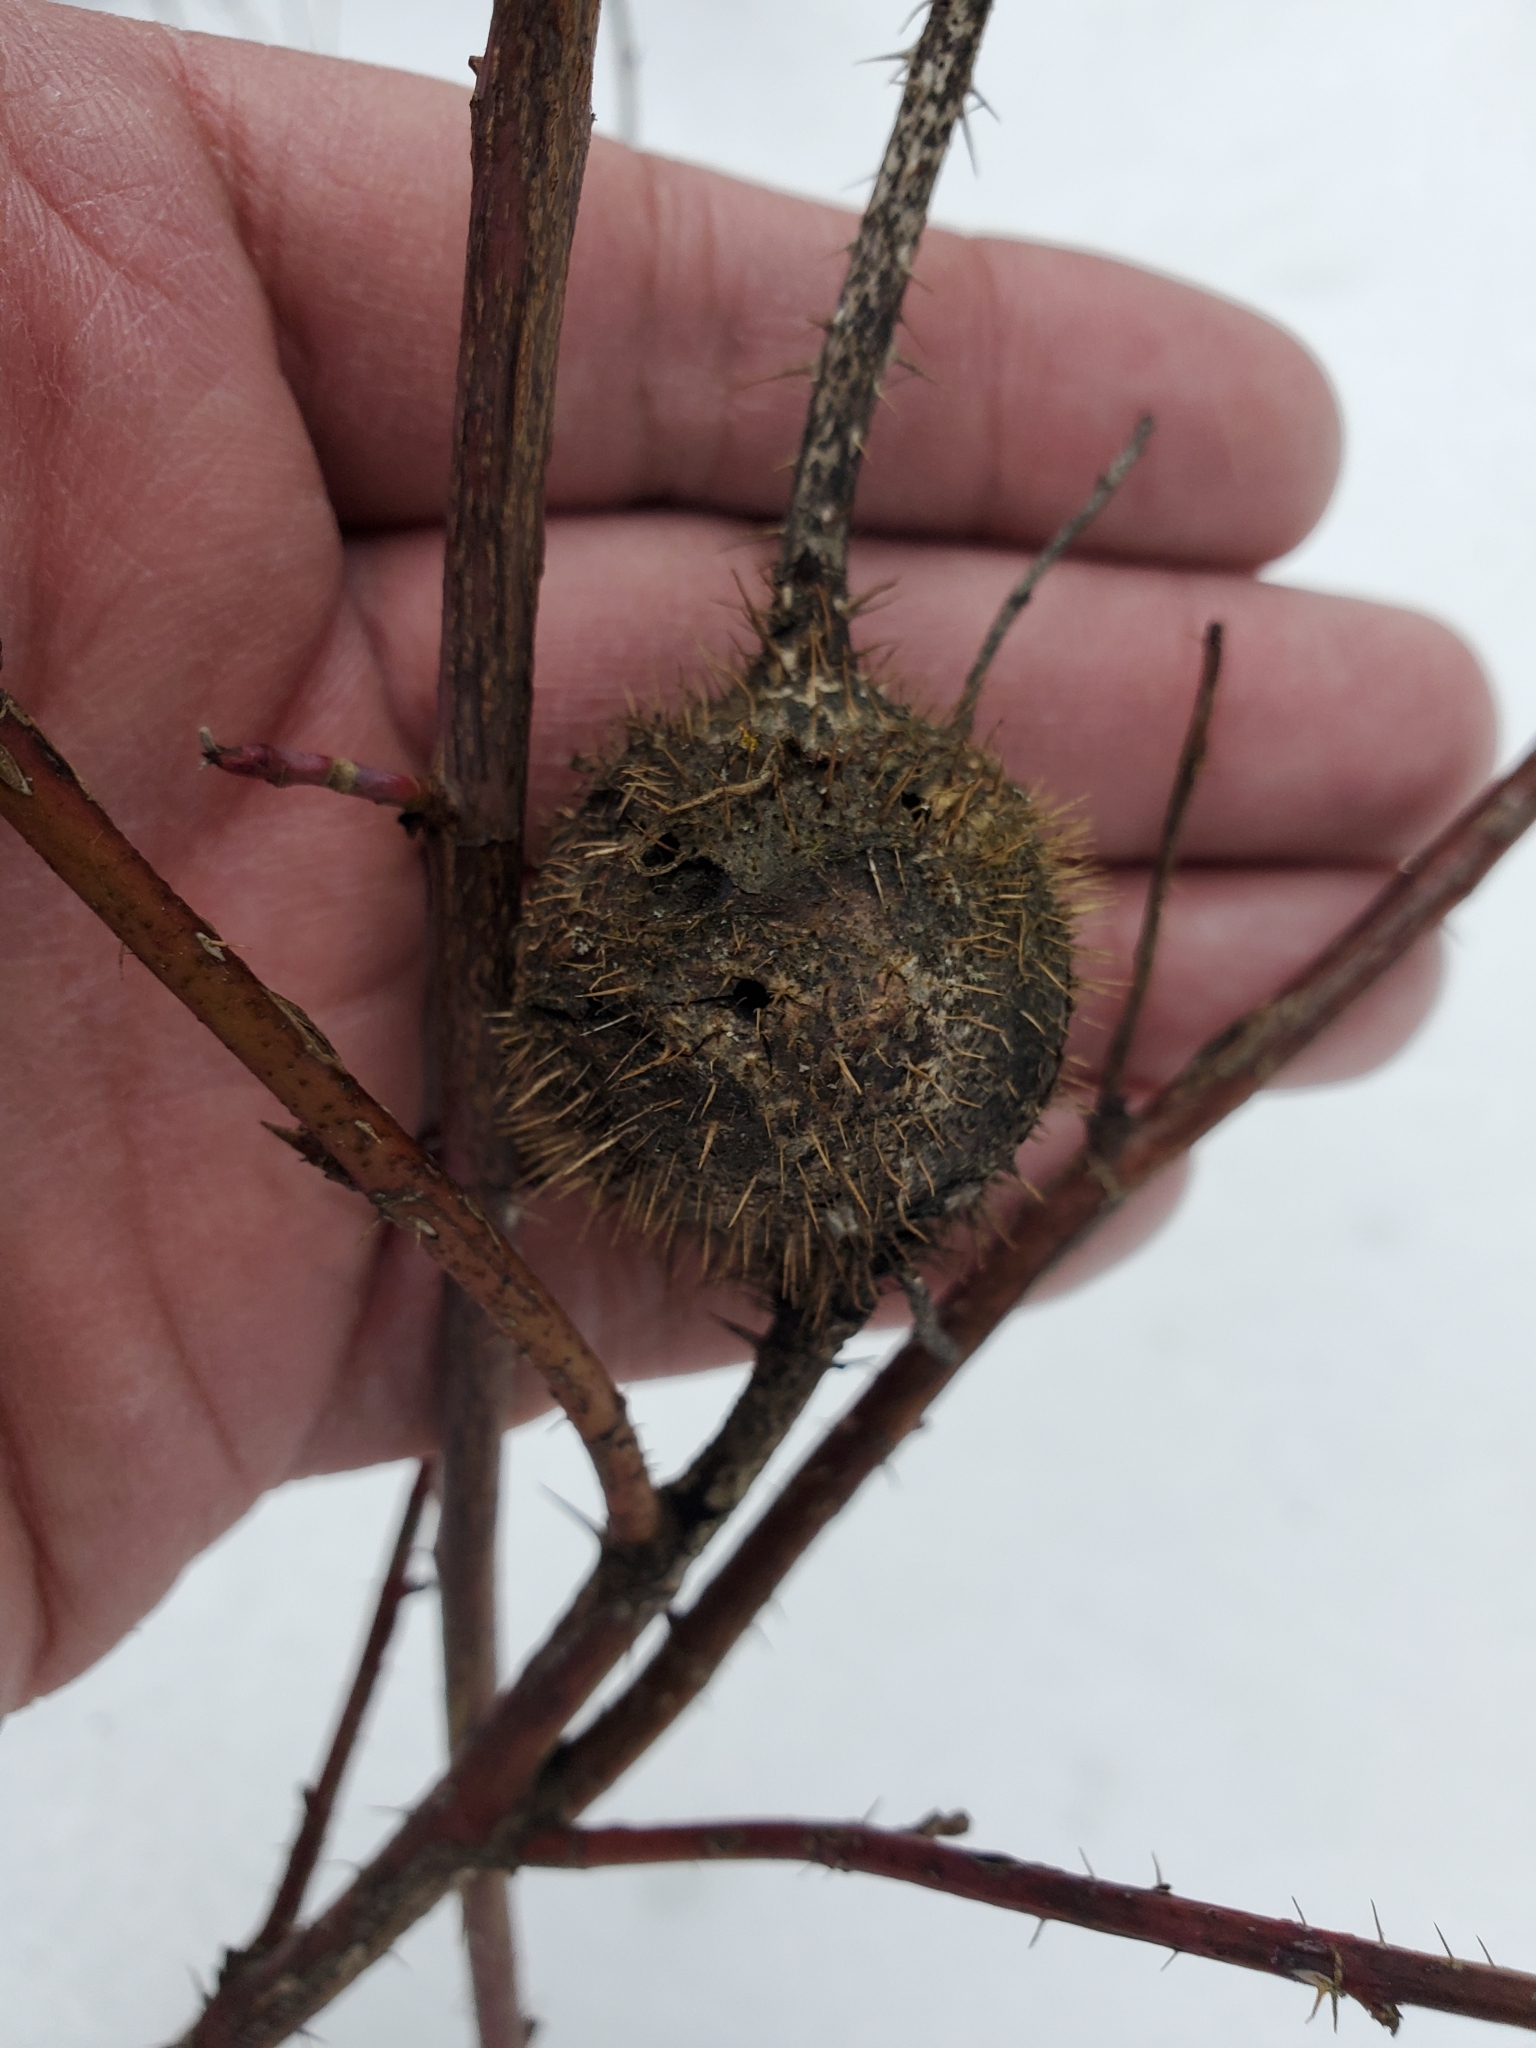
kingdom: Animalia
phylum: Arthropoda
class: Insecta
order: Hymenoptera
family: Cynipidae
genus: Diplolepis
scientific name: Diplolepis spinosa
